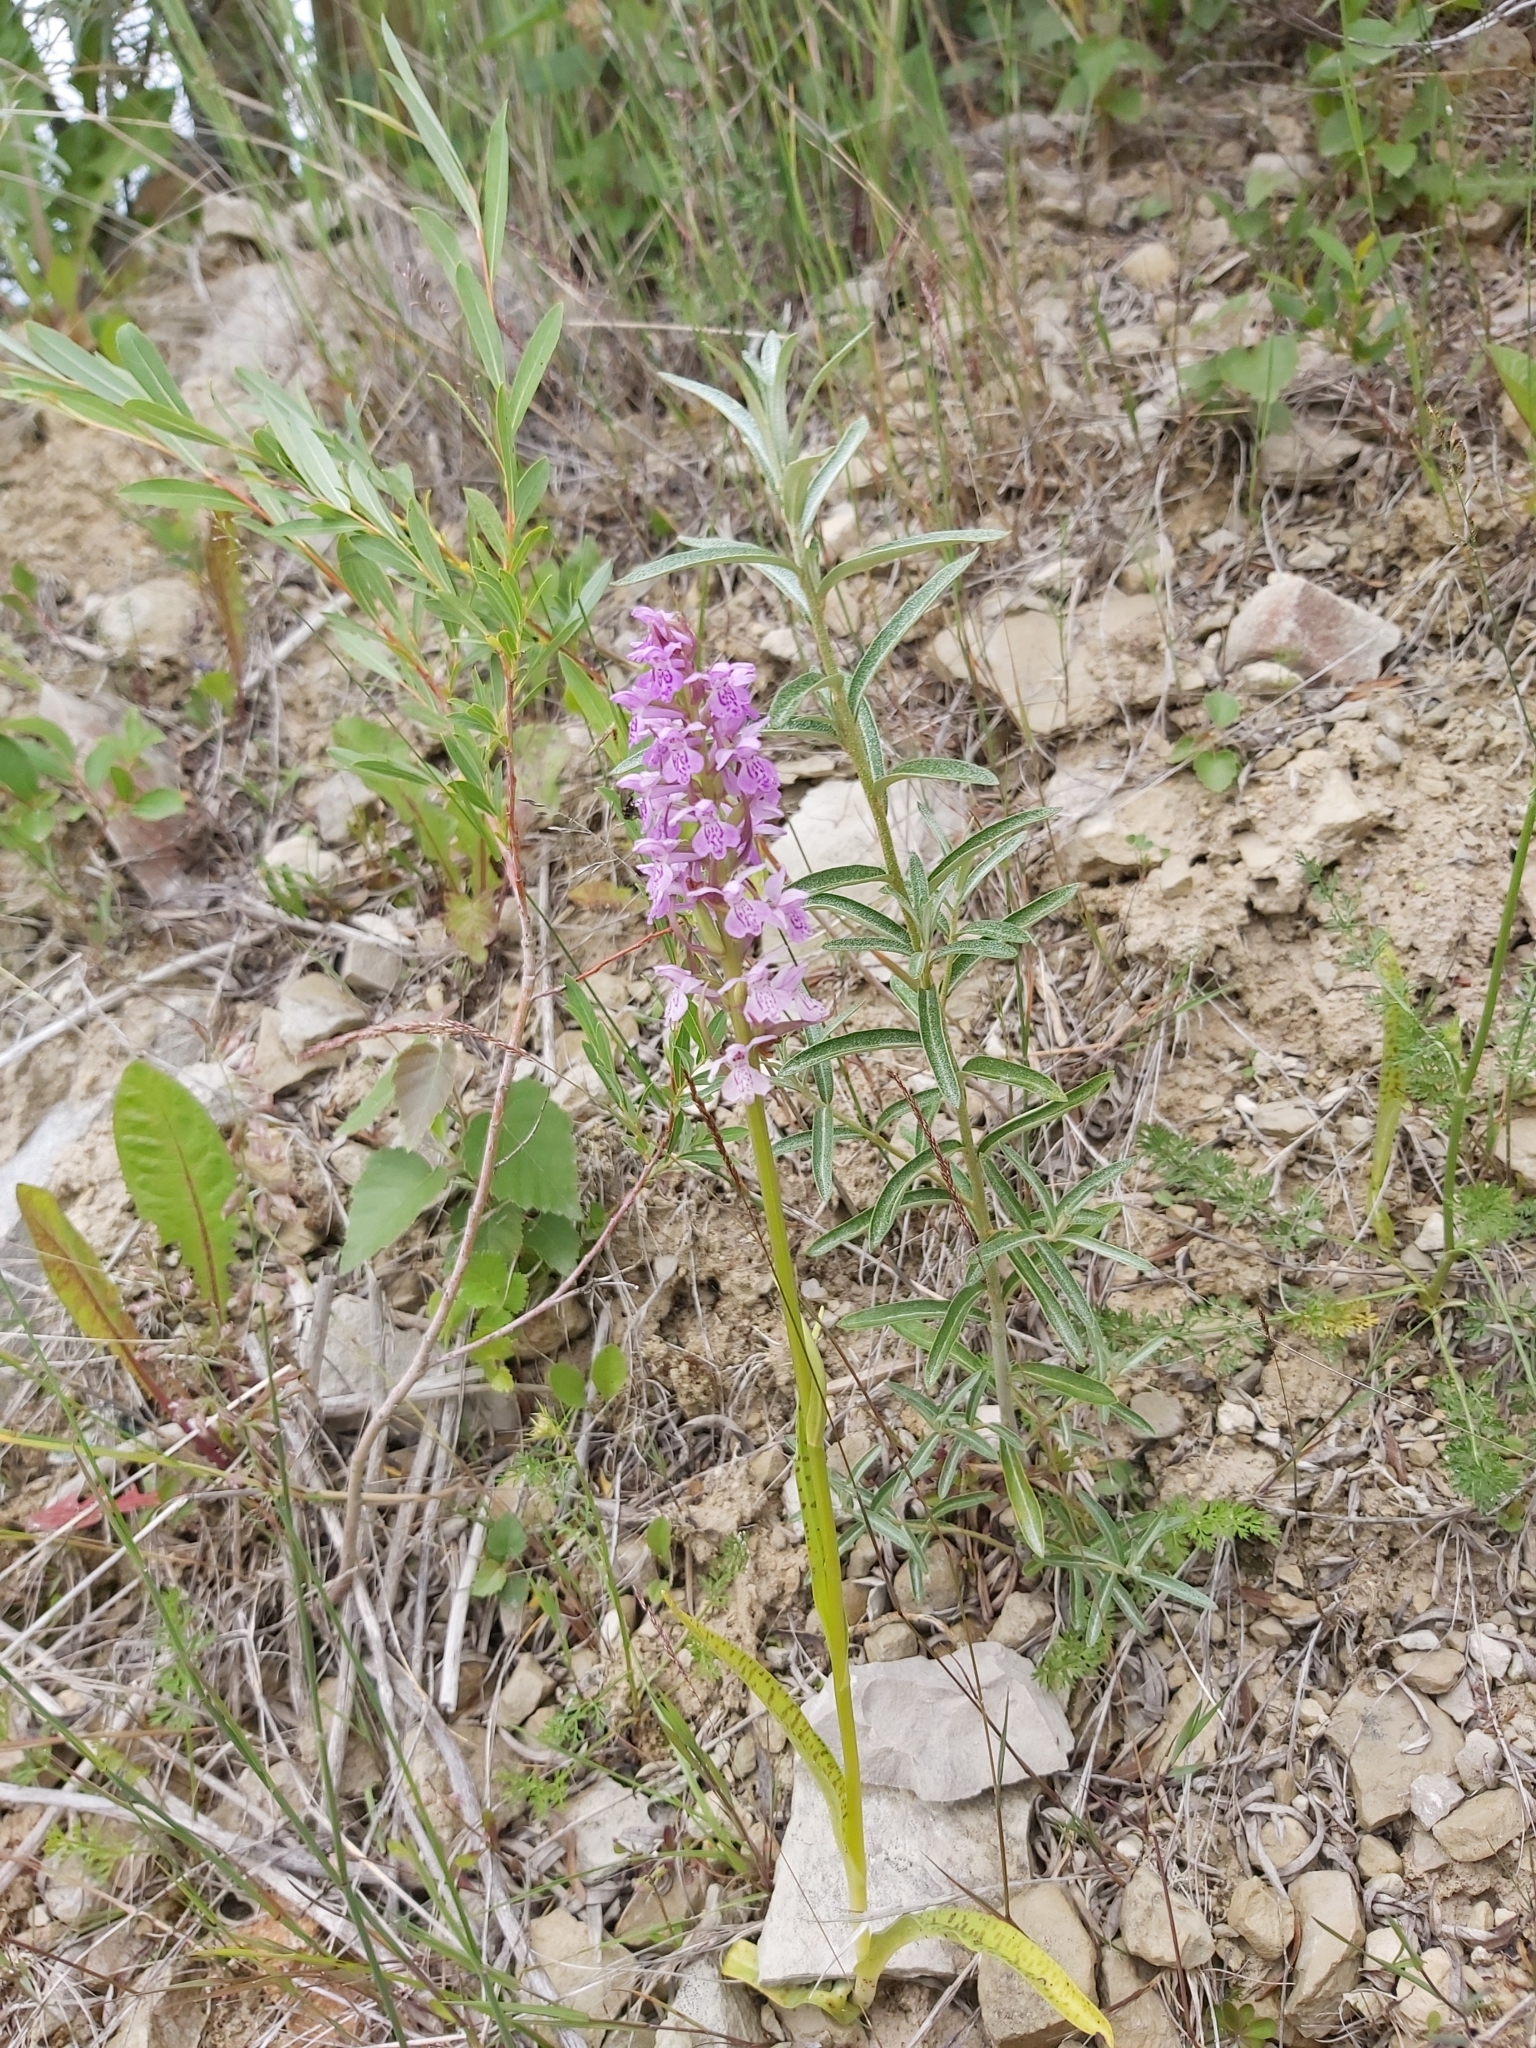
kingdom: Plantae
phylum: Tracheophyta
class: Liliopsida
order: Asparagales
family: Orchidaceae
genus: Dactylorhiza
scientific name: Dactylorhiza majalis
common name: Marsh orchid
